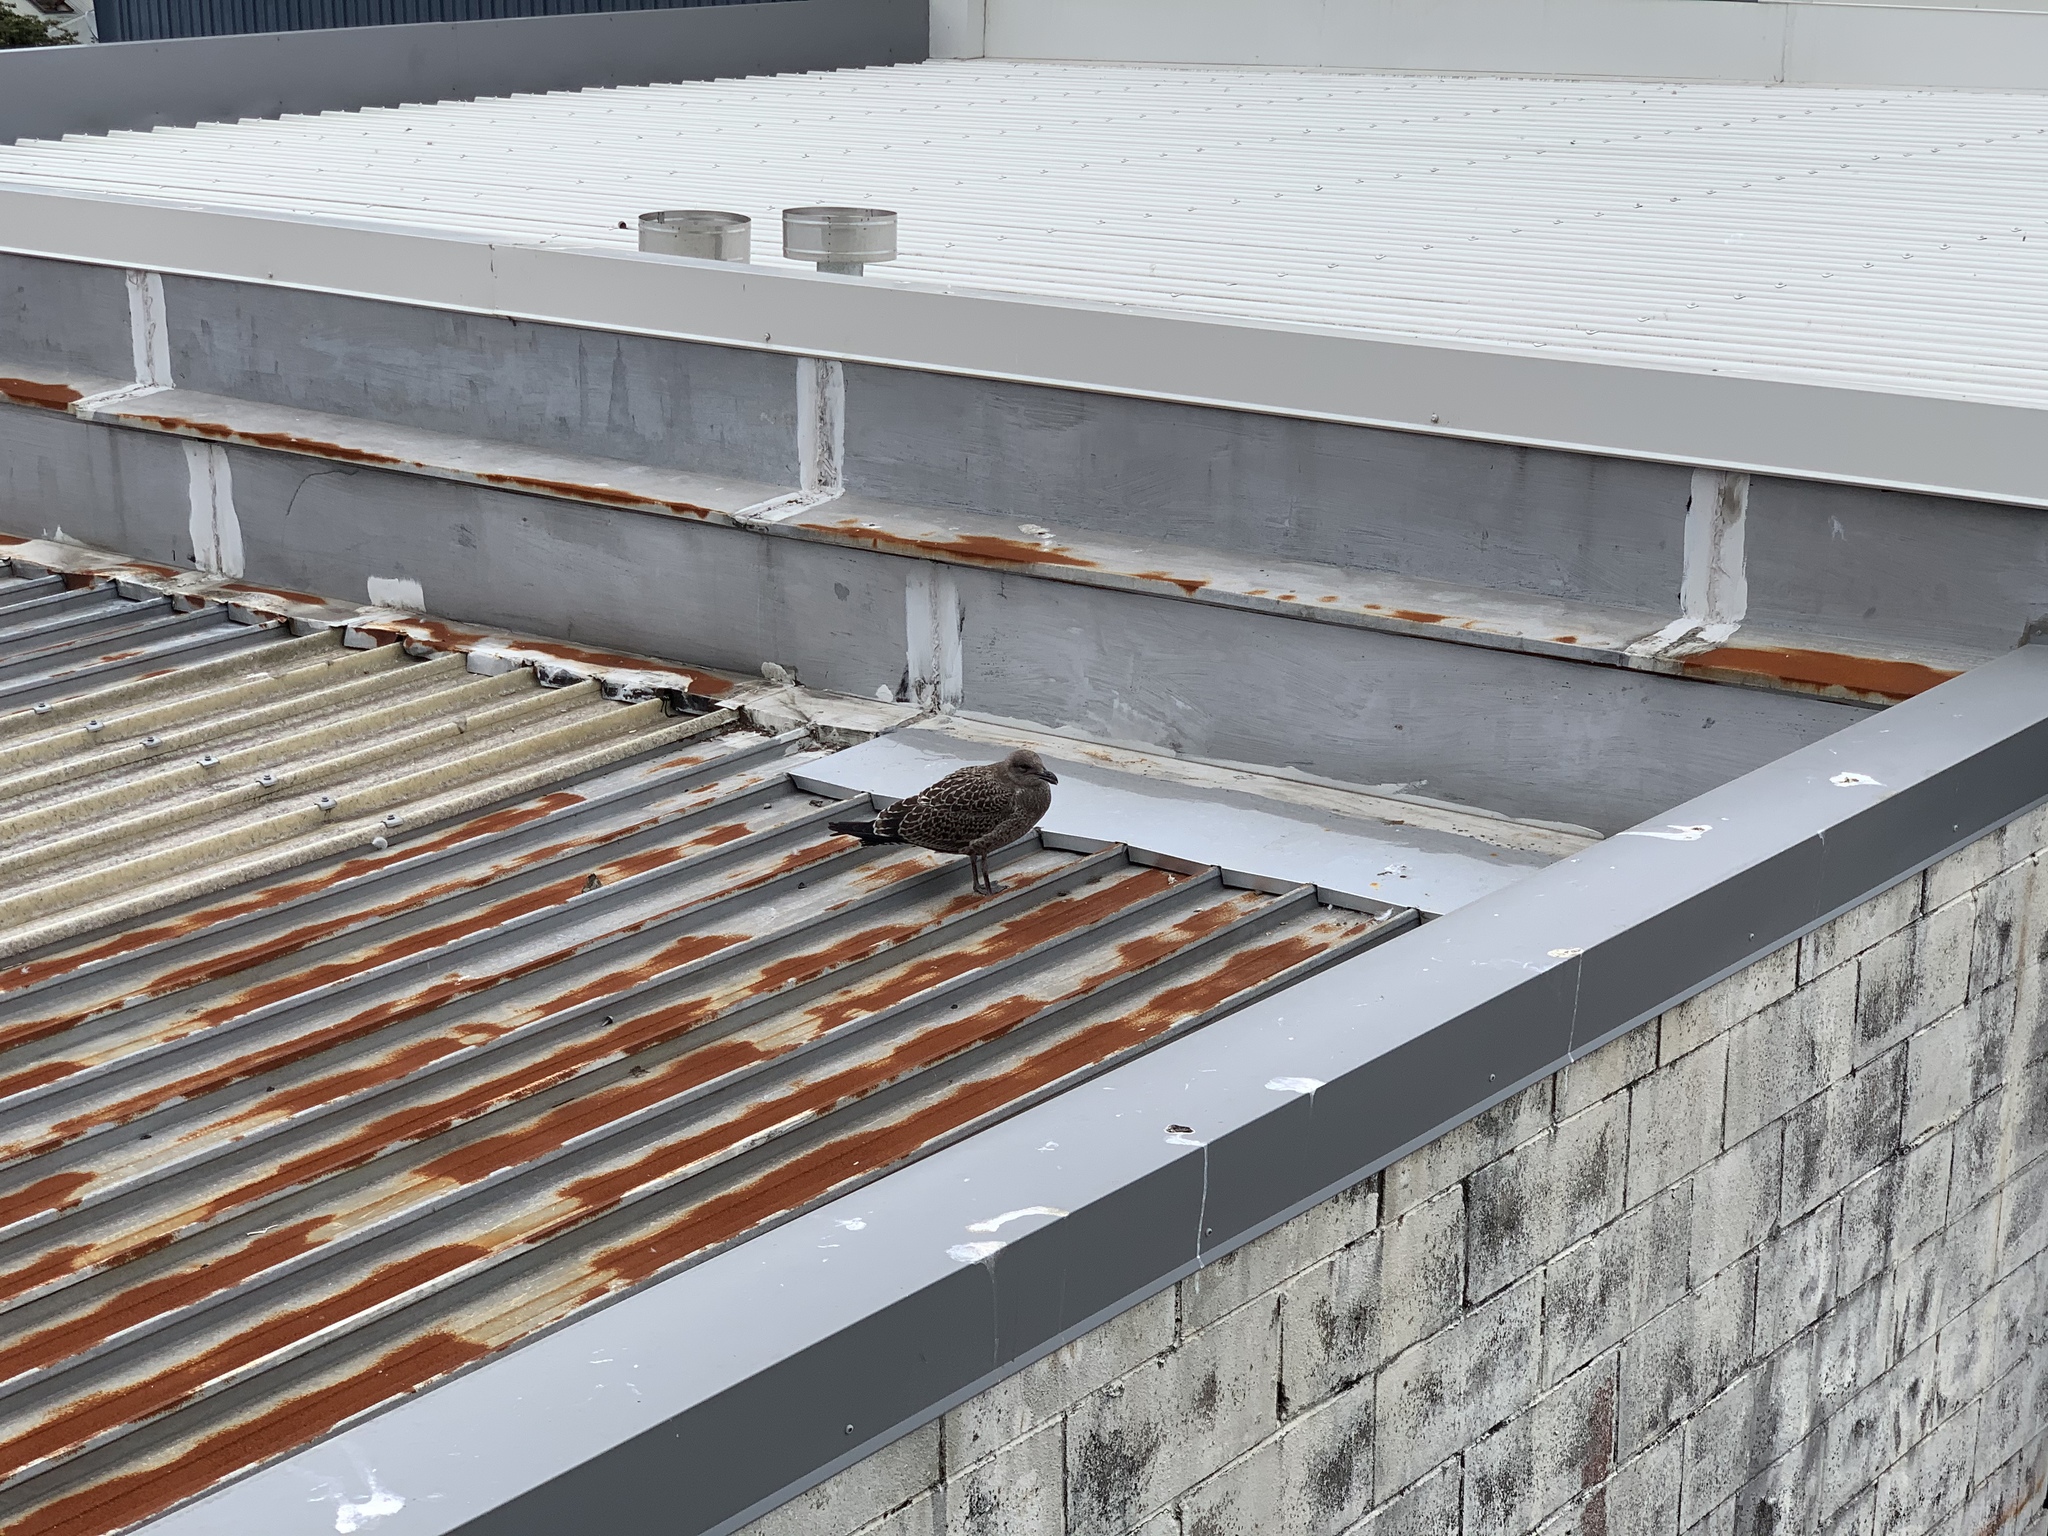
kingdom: Animalia
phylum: Chordata
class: Aves
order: Charadriiformes
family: Laridae
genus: Larus
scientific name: Larus dominicanus
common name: Kelp gull
